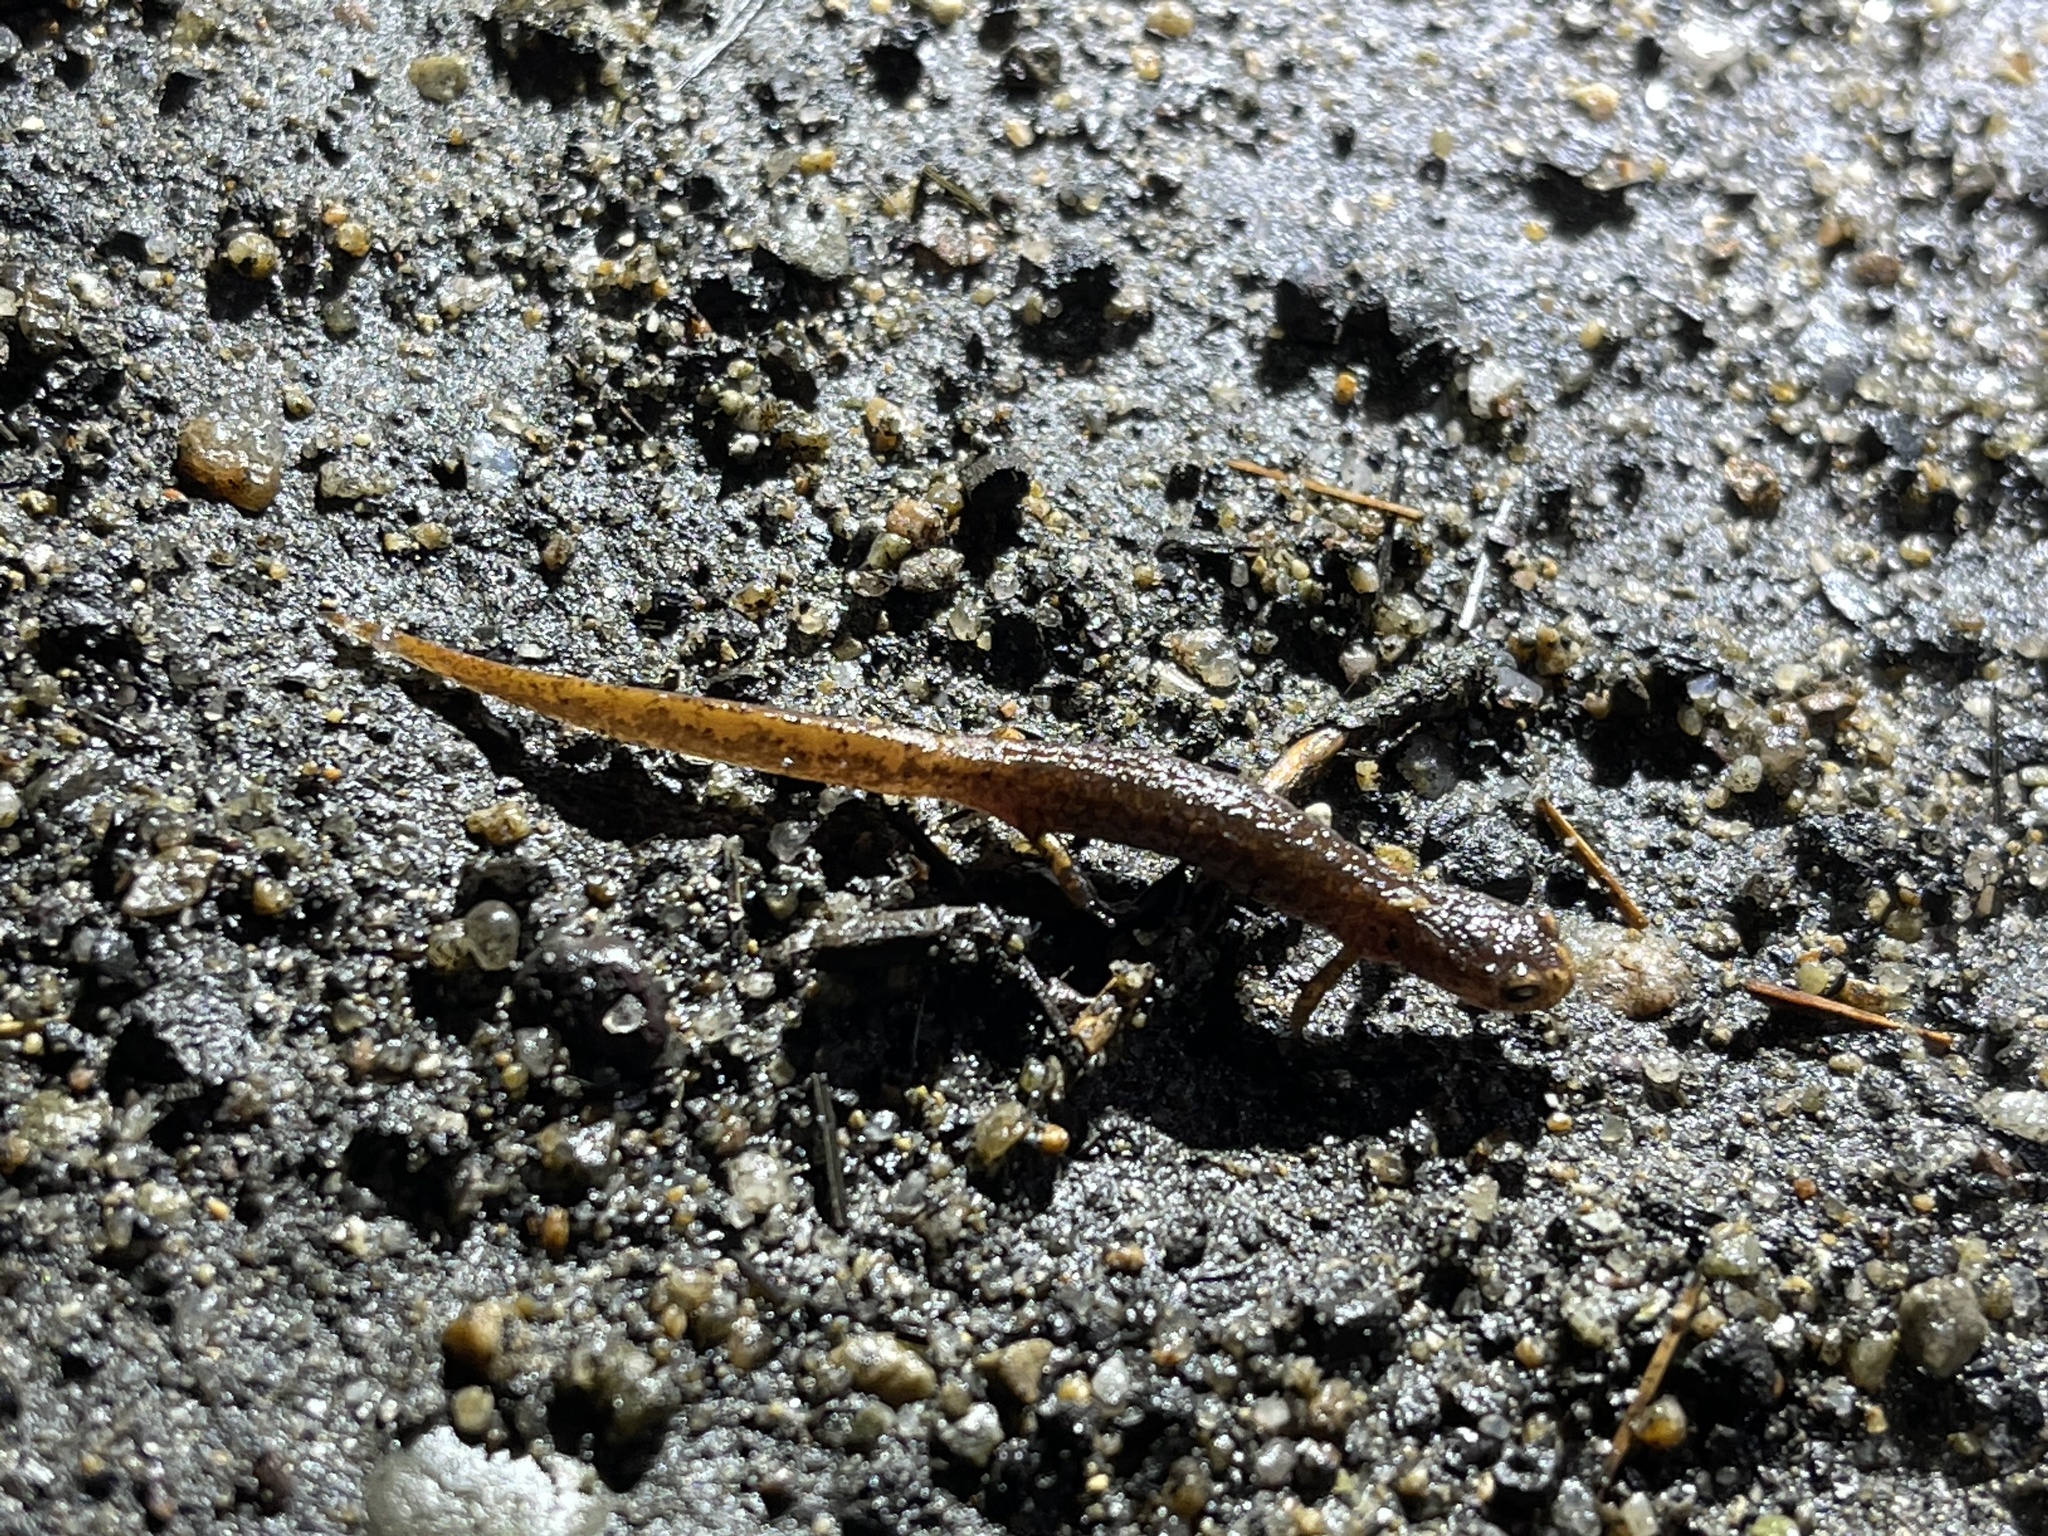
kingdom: Animalia
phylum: Chordata
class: Amphibia
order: Caudata
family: Plethodontidae
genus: Hemidactylium
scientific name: Hemidactylium scutatum
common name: Four-toed salamander
